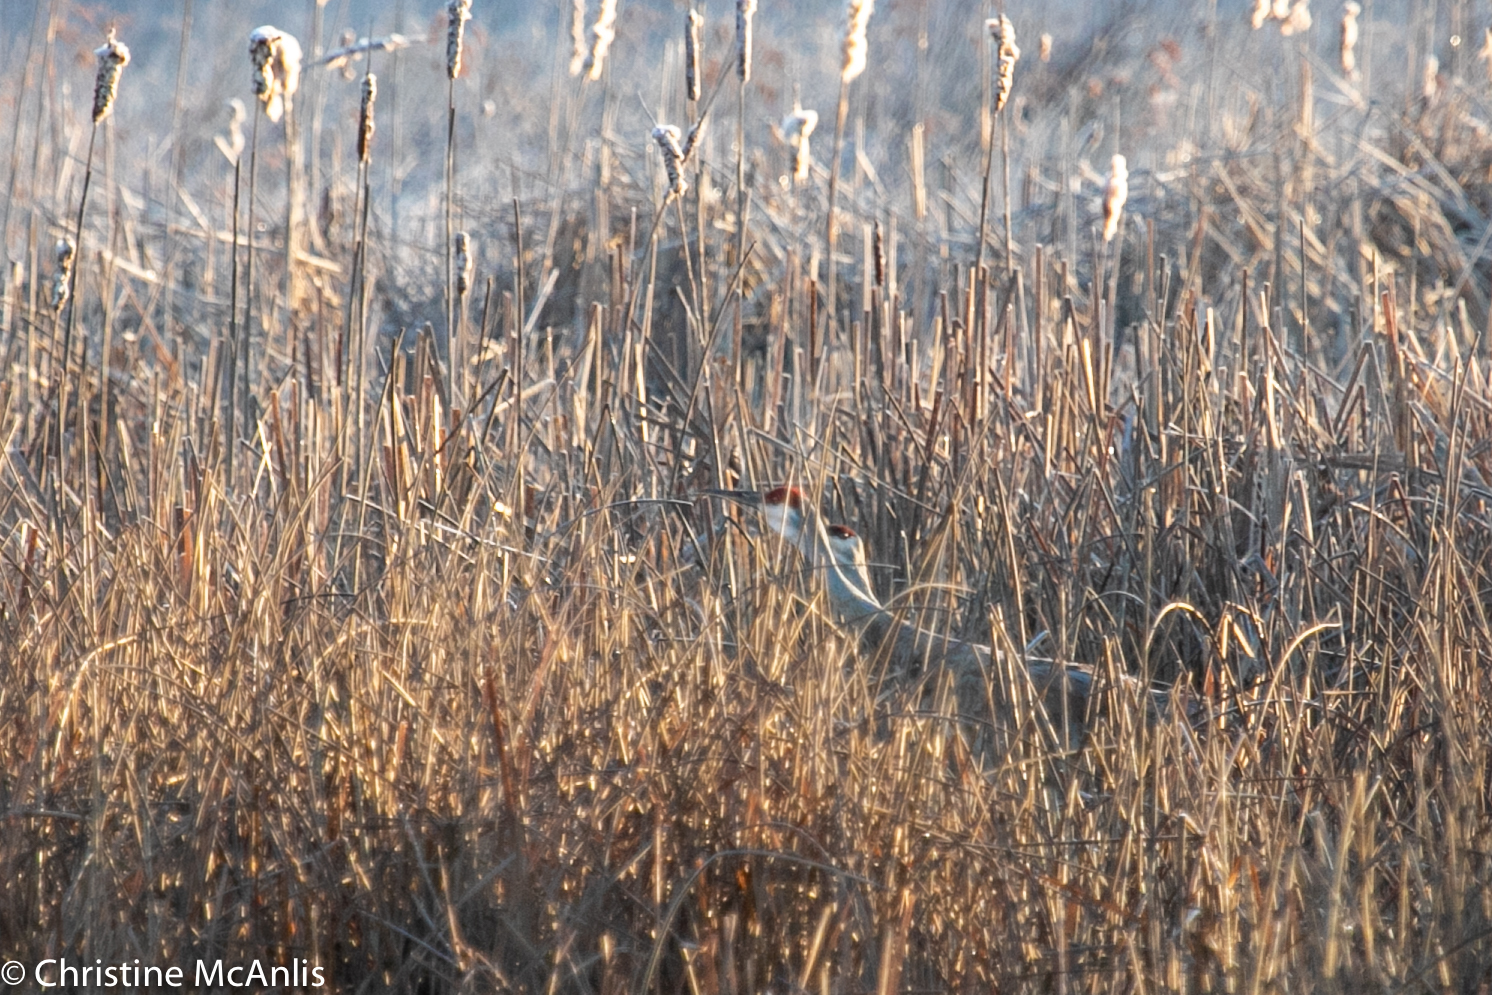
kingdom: Animalia
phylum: Chordata
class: Aves
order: Gruiformes
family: Gruidae
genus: Grus
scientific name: Grus canadensis
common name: Sandhill crane
